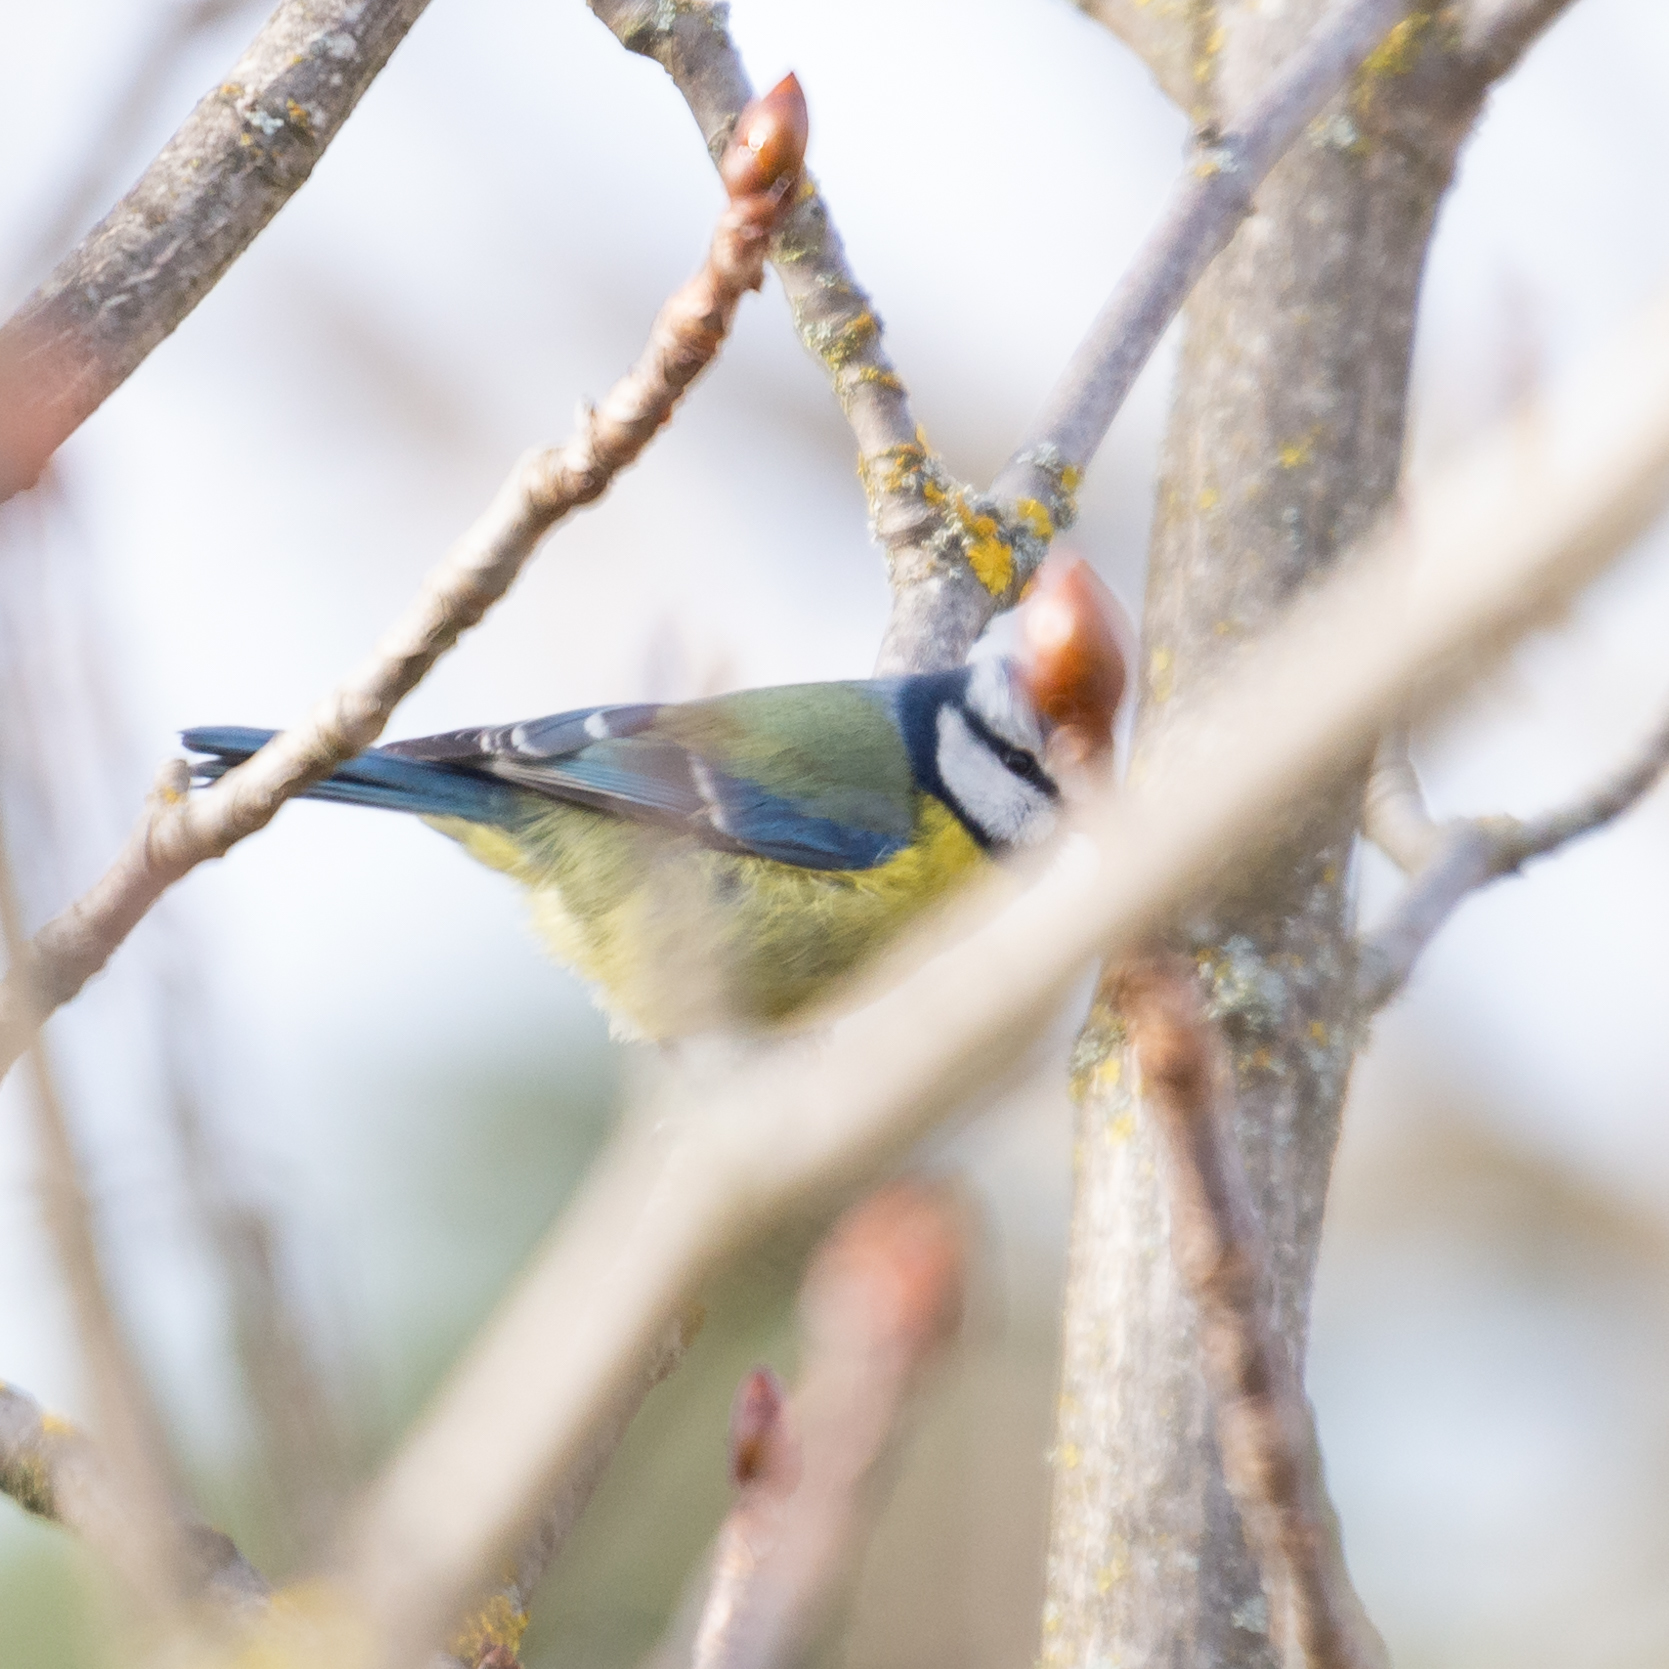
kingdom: Animalia
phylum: Chordata
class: Aves
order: Passeriformes
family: Paridae
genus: Cyanistes
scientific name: Cyanistes caeruleus
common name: Eurasian blue tit
